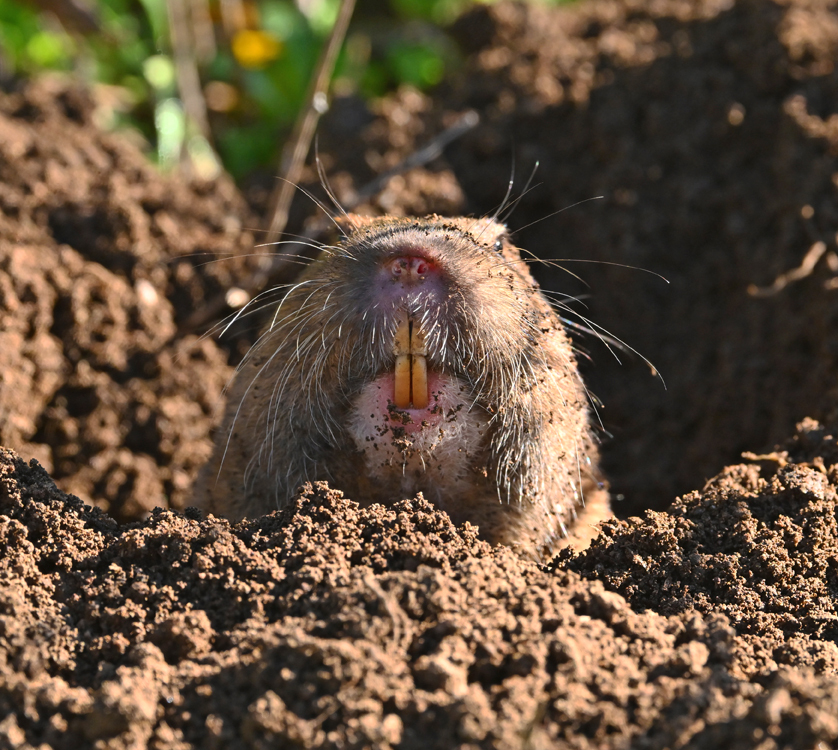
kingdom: Animalia
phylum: Chordata
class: Mammalia
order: Rodentia
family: Geomyidae
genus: Thomomys
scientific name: Thomomys bottae
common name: Botta's pocket gopher
